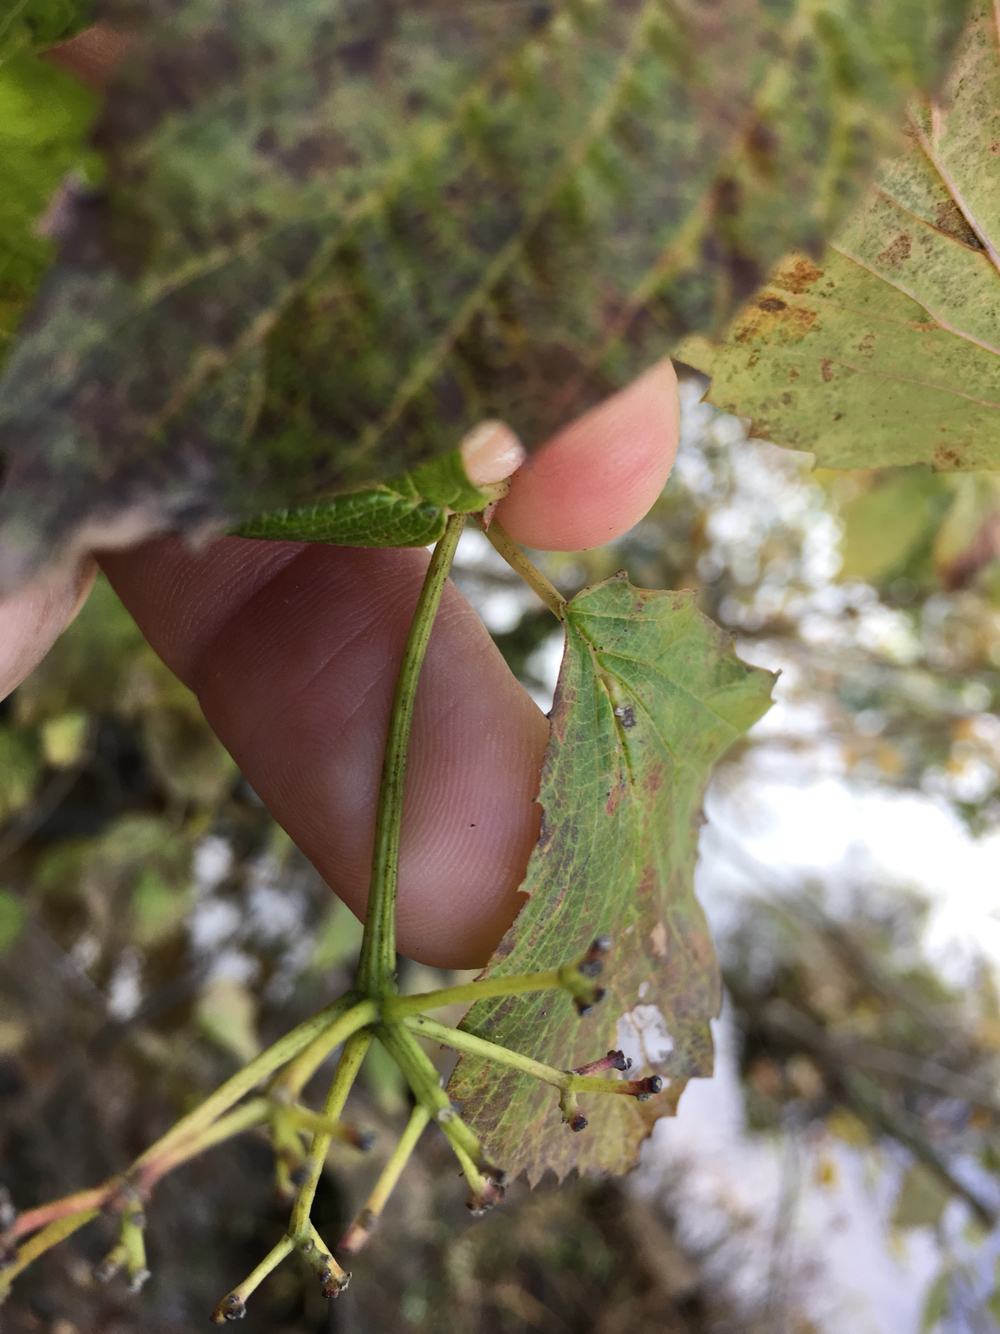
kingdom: Plantae
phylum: Tracheophyta
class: Magnoliopsida
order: Dipsacales
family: Viburnaceae
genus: Viburnum
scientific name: Viburnum recognitum
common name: Northern arrow-wood
